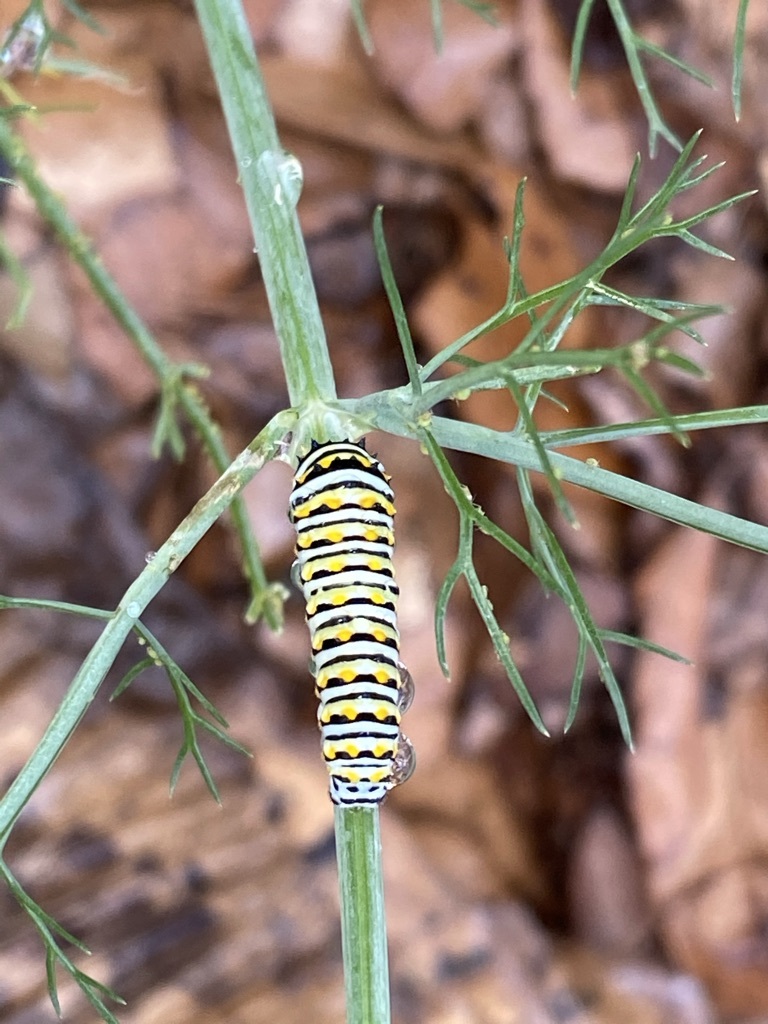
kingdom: Animalia
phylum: Arthropoda
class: Insecta
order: Lepidoptera
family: Papilionidae
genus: Papilio
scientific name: Papilio polyxenes
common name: Black swallowtail
